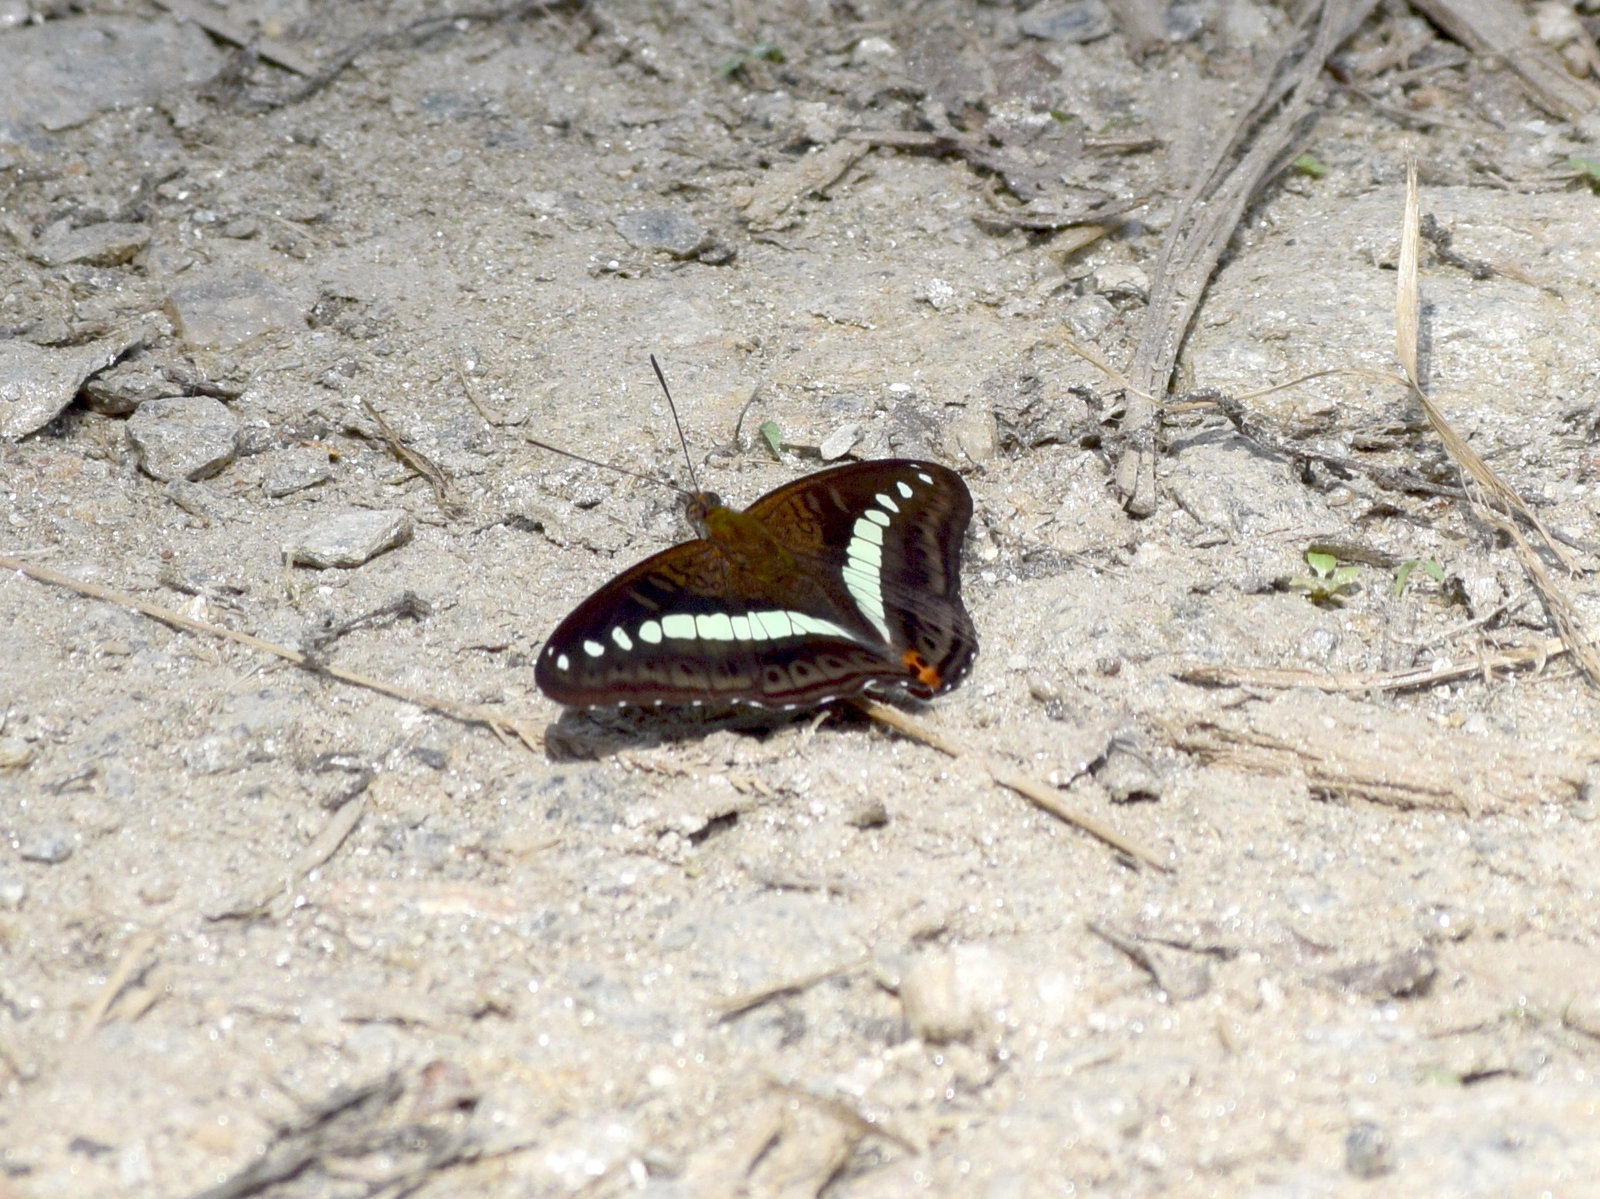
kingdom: Animalia
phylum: Arthropoda
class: Insecta
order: Lepidoptera
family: Nymphalidae
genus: Limenitis
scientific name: Limenitis Sumalia daraxa
